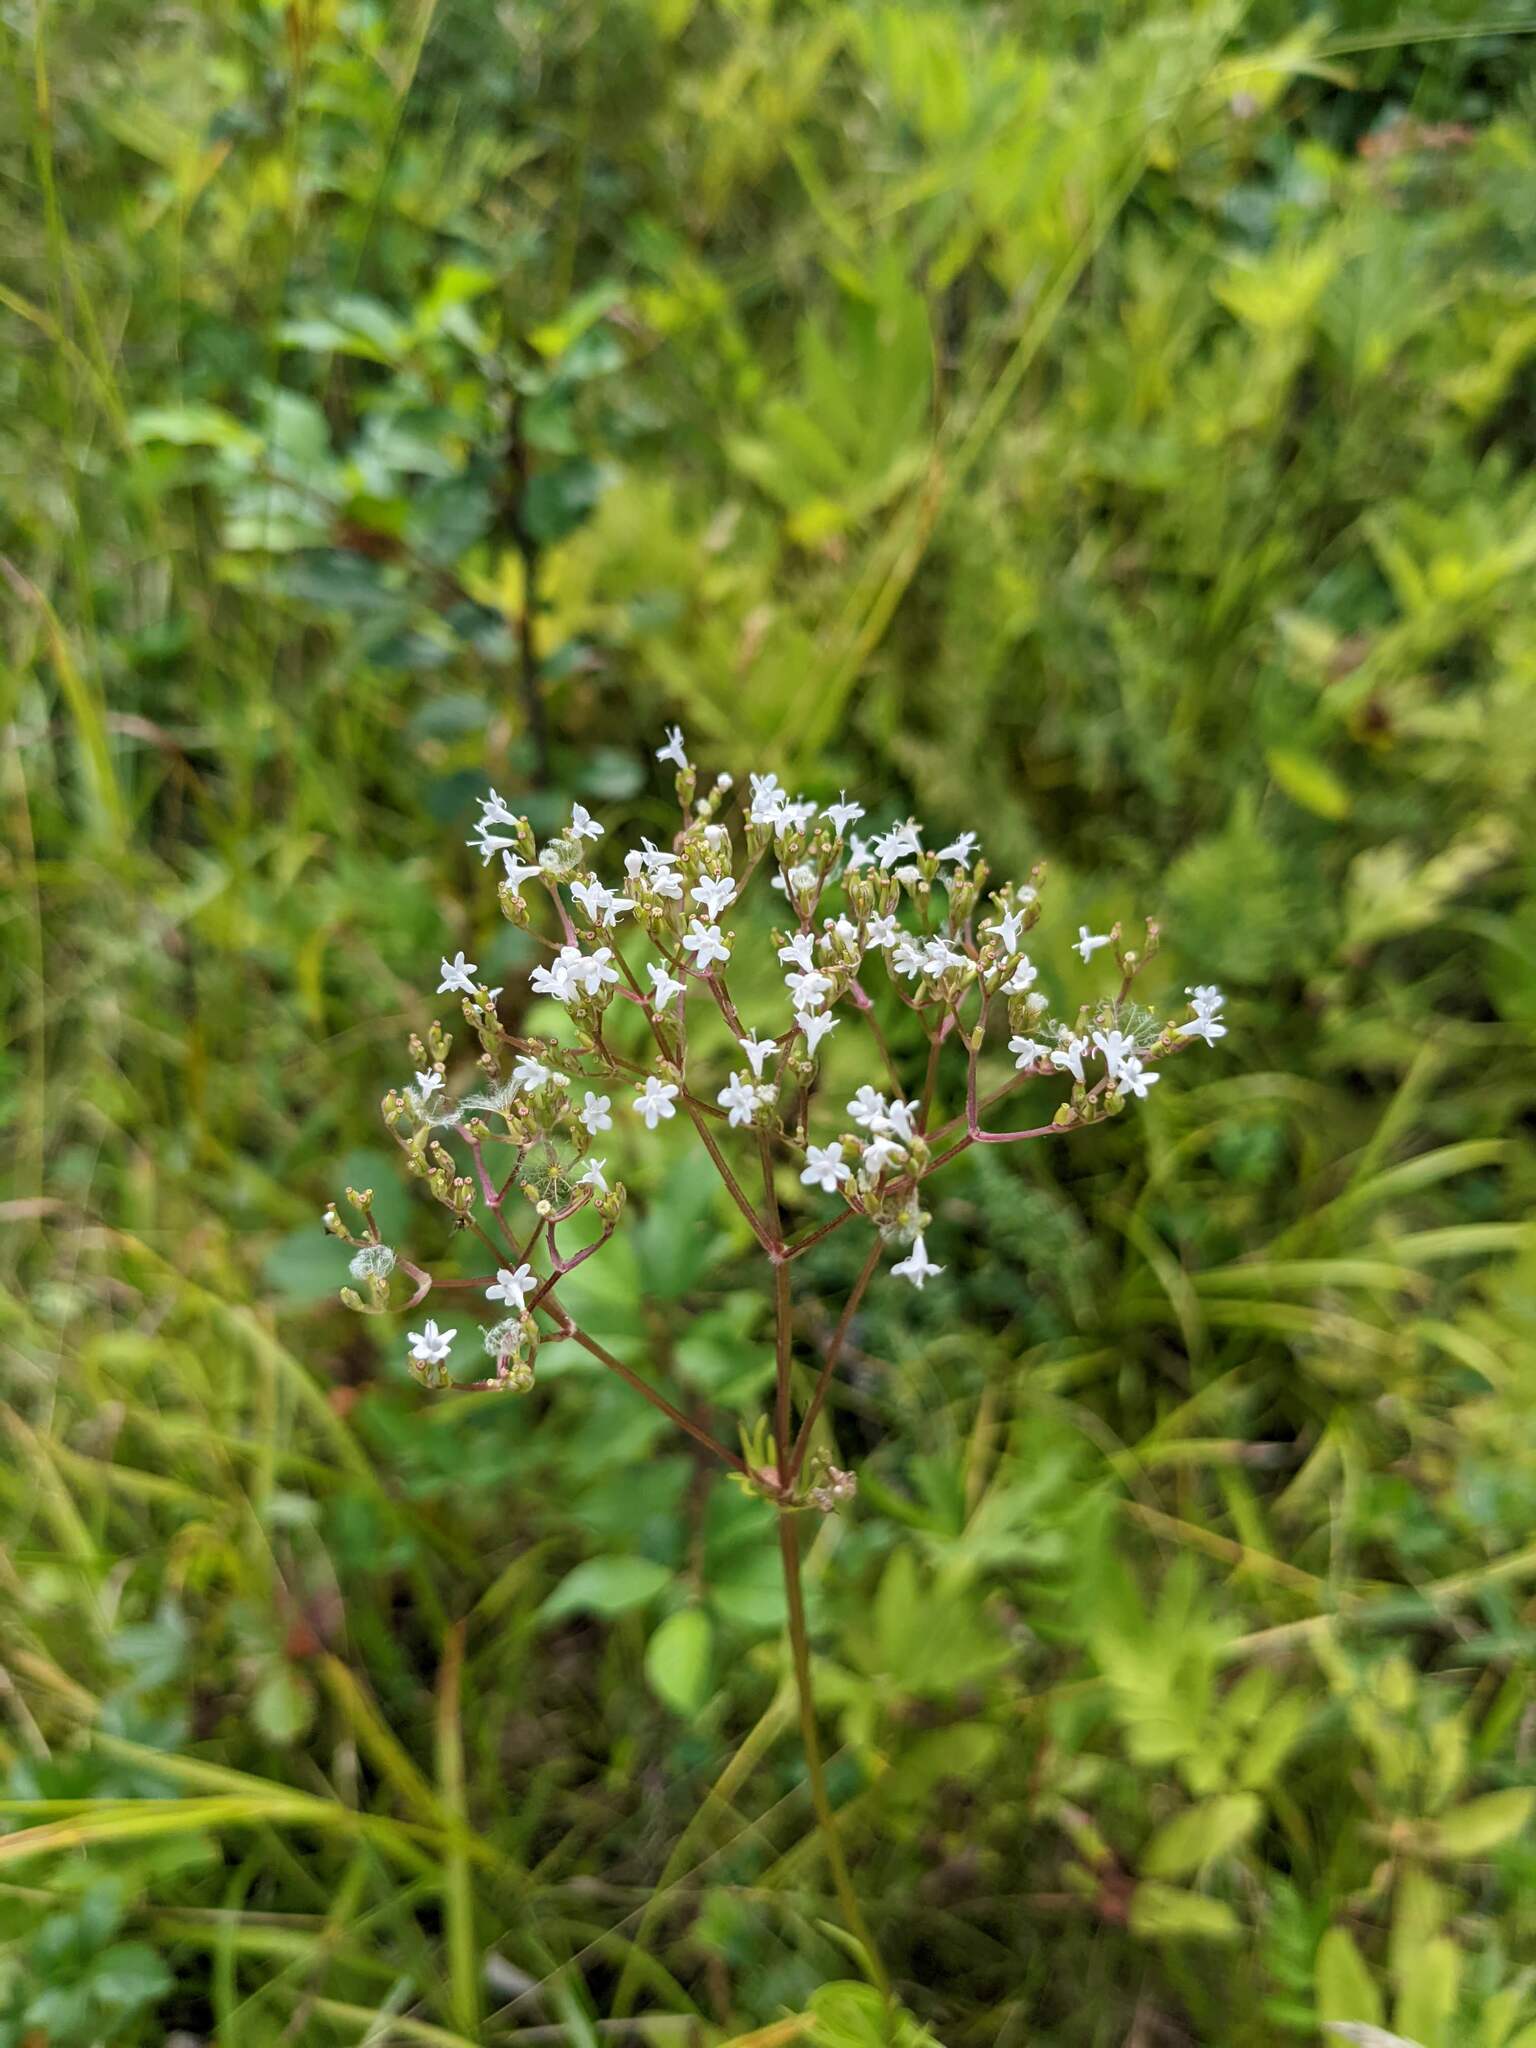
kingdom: Plantae
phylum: Tracheophyta
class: Magnoliopsida
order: Dipsacales
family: Caprifoliaceae
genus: Valeriana
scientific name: Valeriana officinalis
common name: Common valerian
